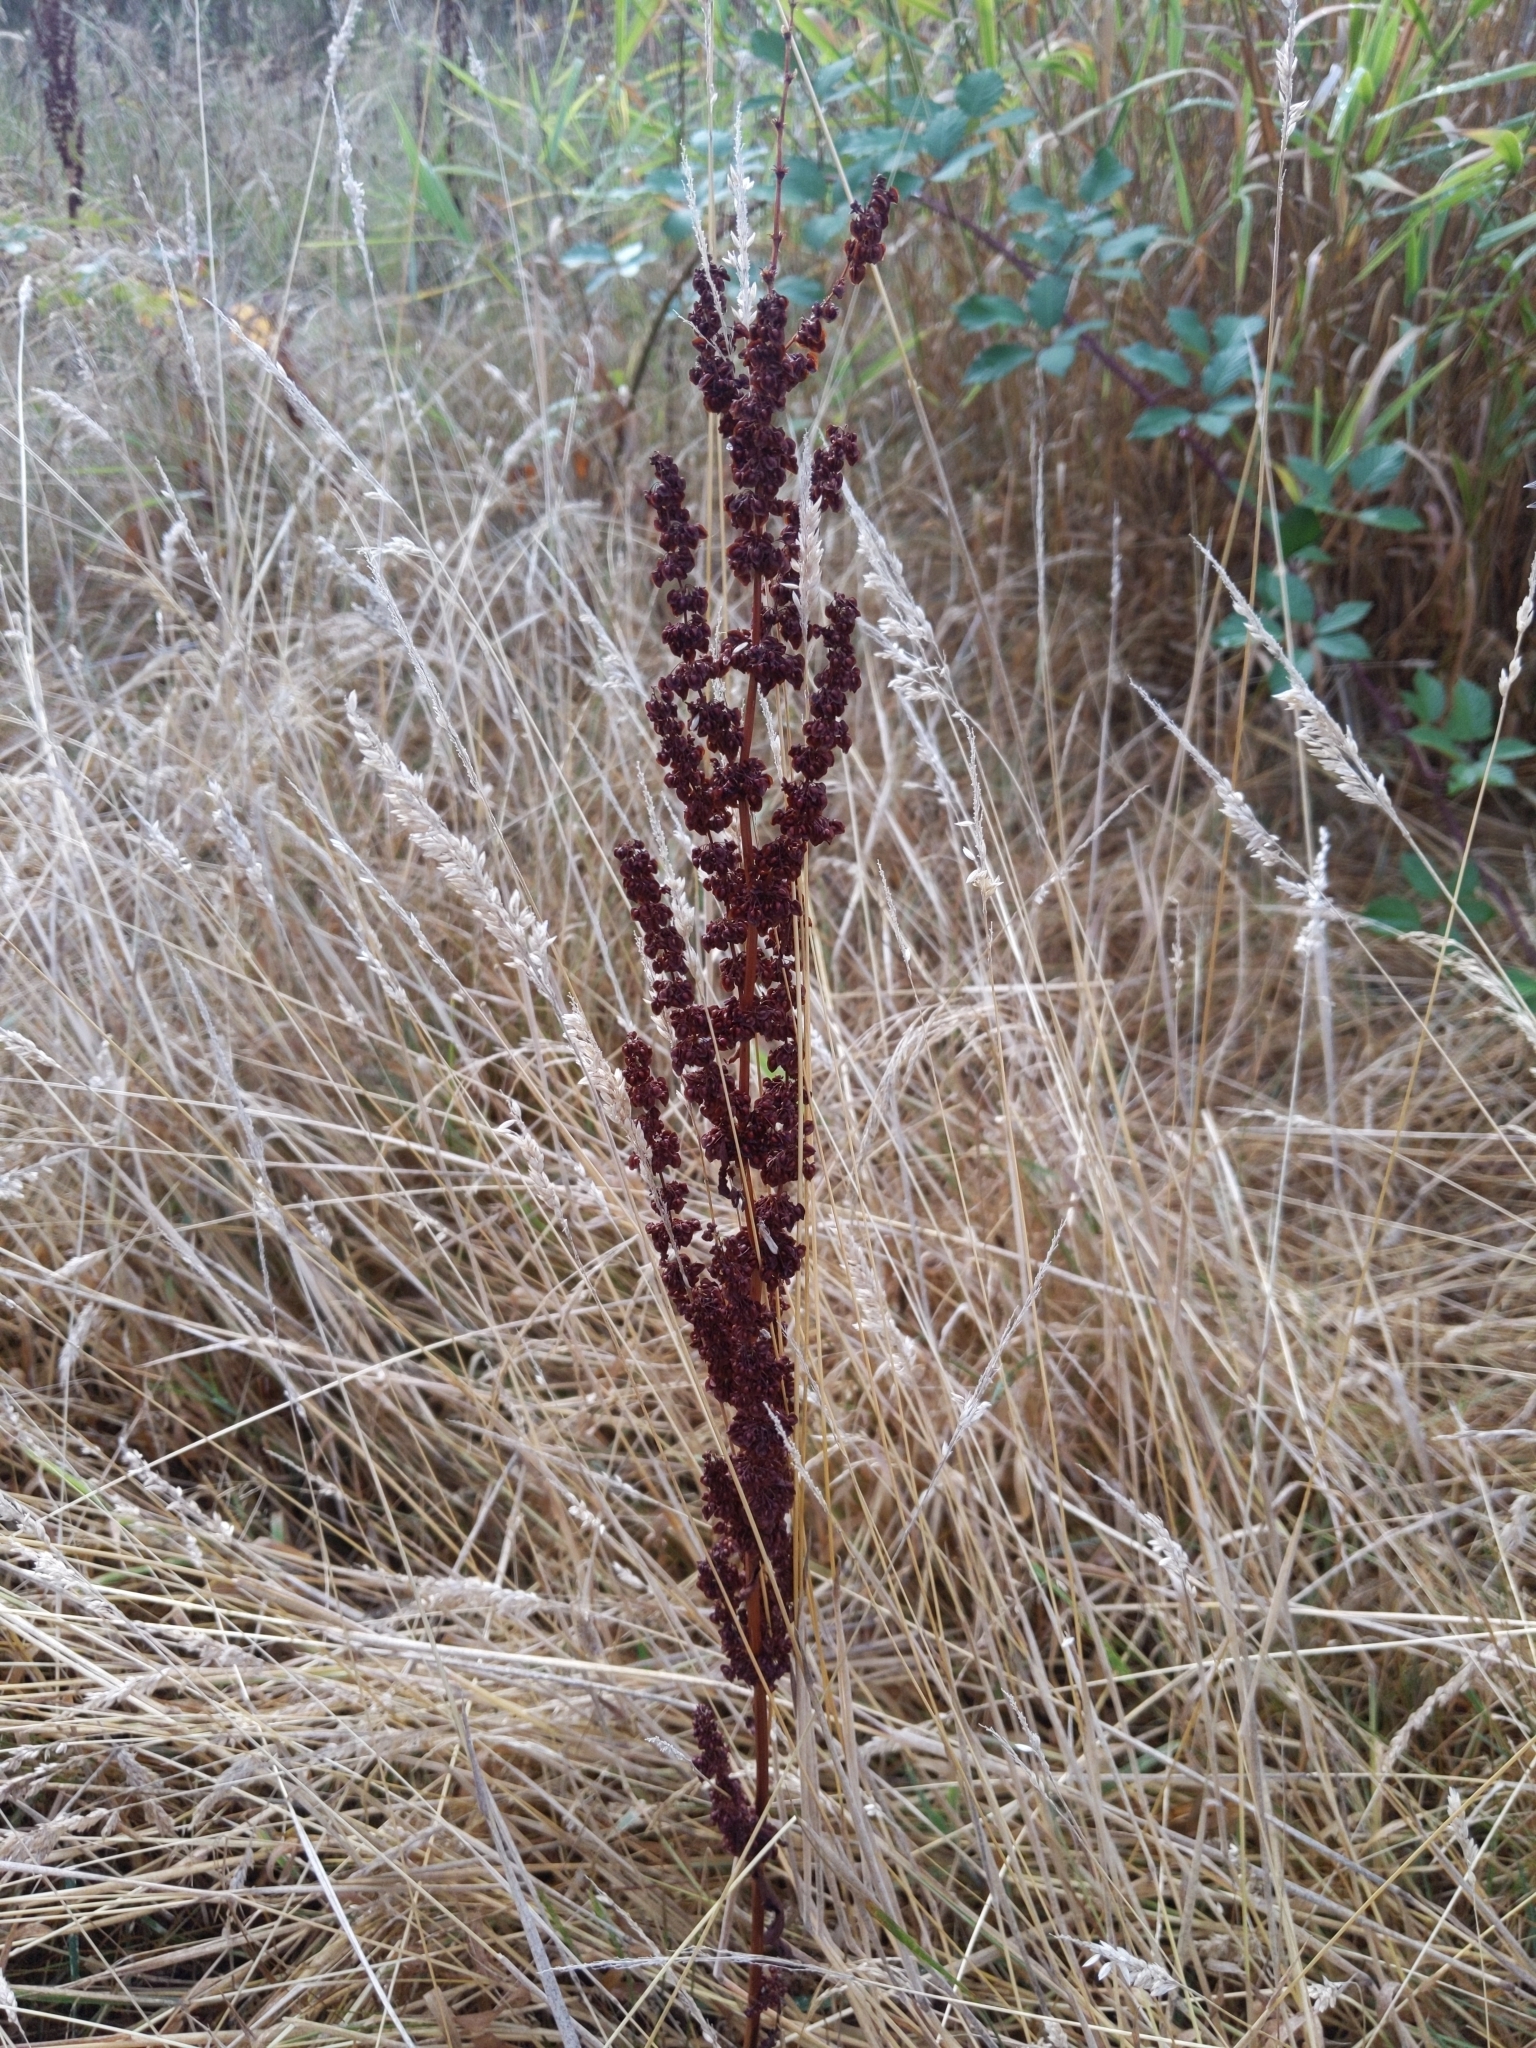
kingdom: Plantae
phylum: Tracheophyta
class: Magnoliopsida
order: Caryophyllales
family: Polygonaceae
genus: Rumex
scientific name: Rumex crispus
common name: Curled dock
